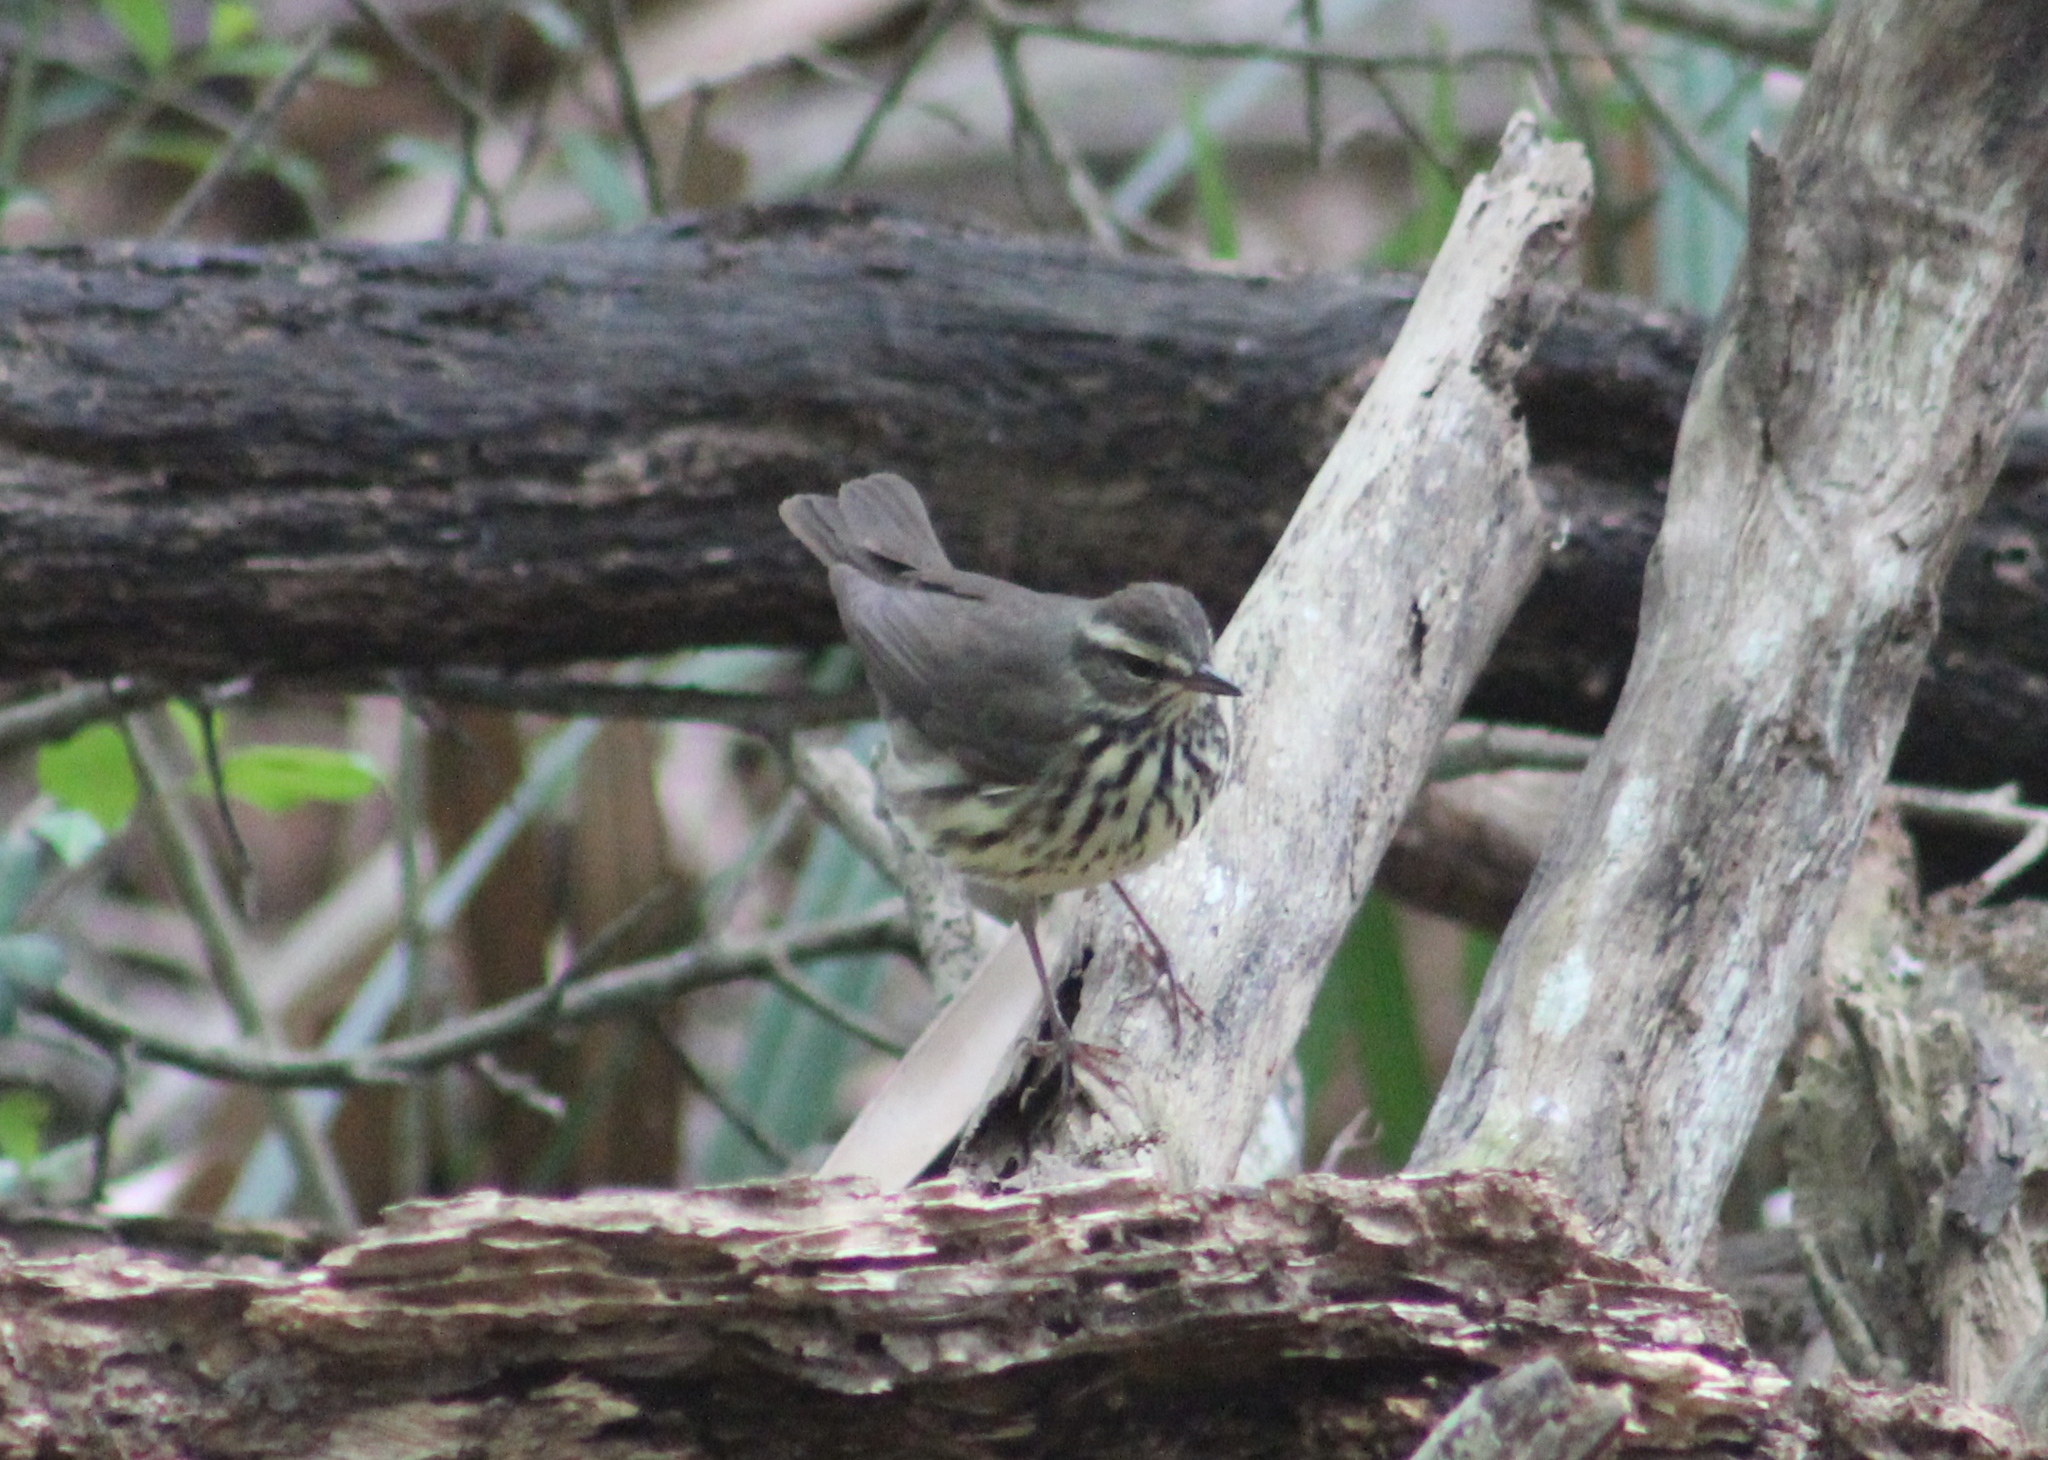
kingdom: Animalia
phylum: Chordata
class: Aves
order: Passeriformes
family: Parulidae
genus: Parkesia
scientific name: Parkesia noveboracensis
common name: Northern waterthrush
